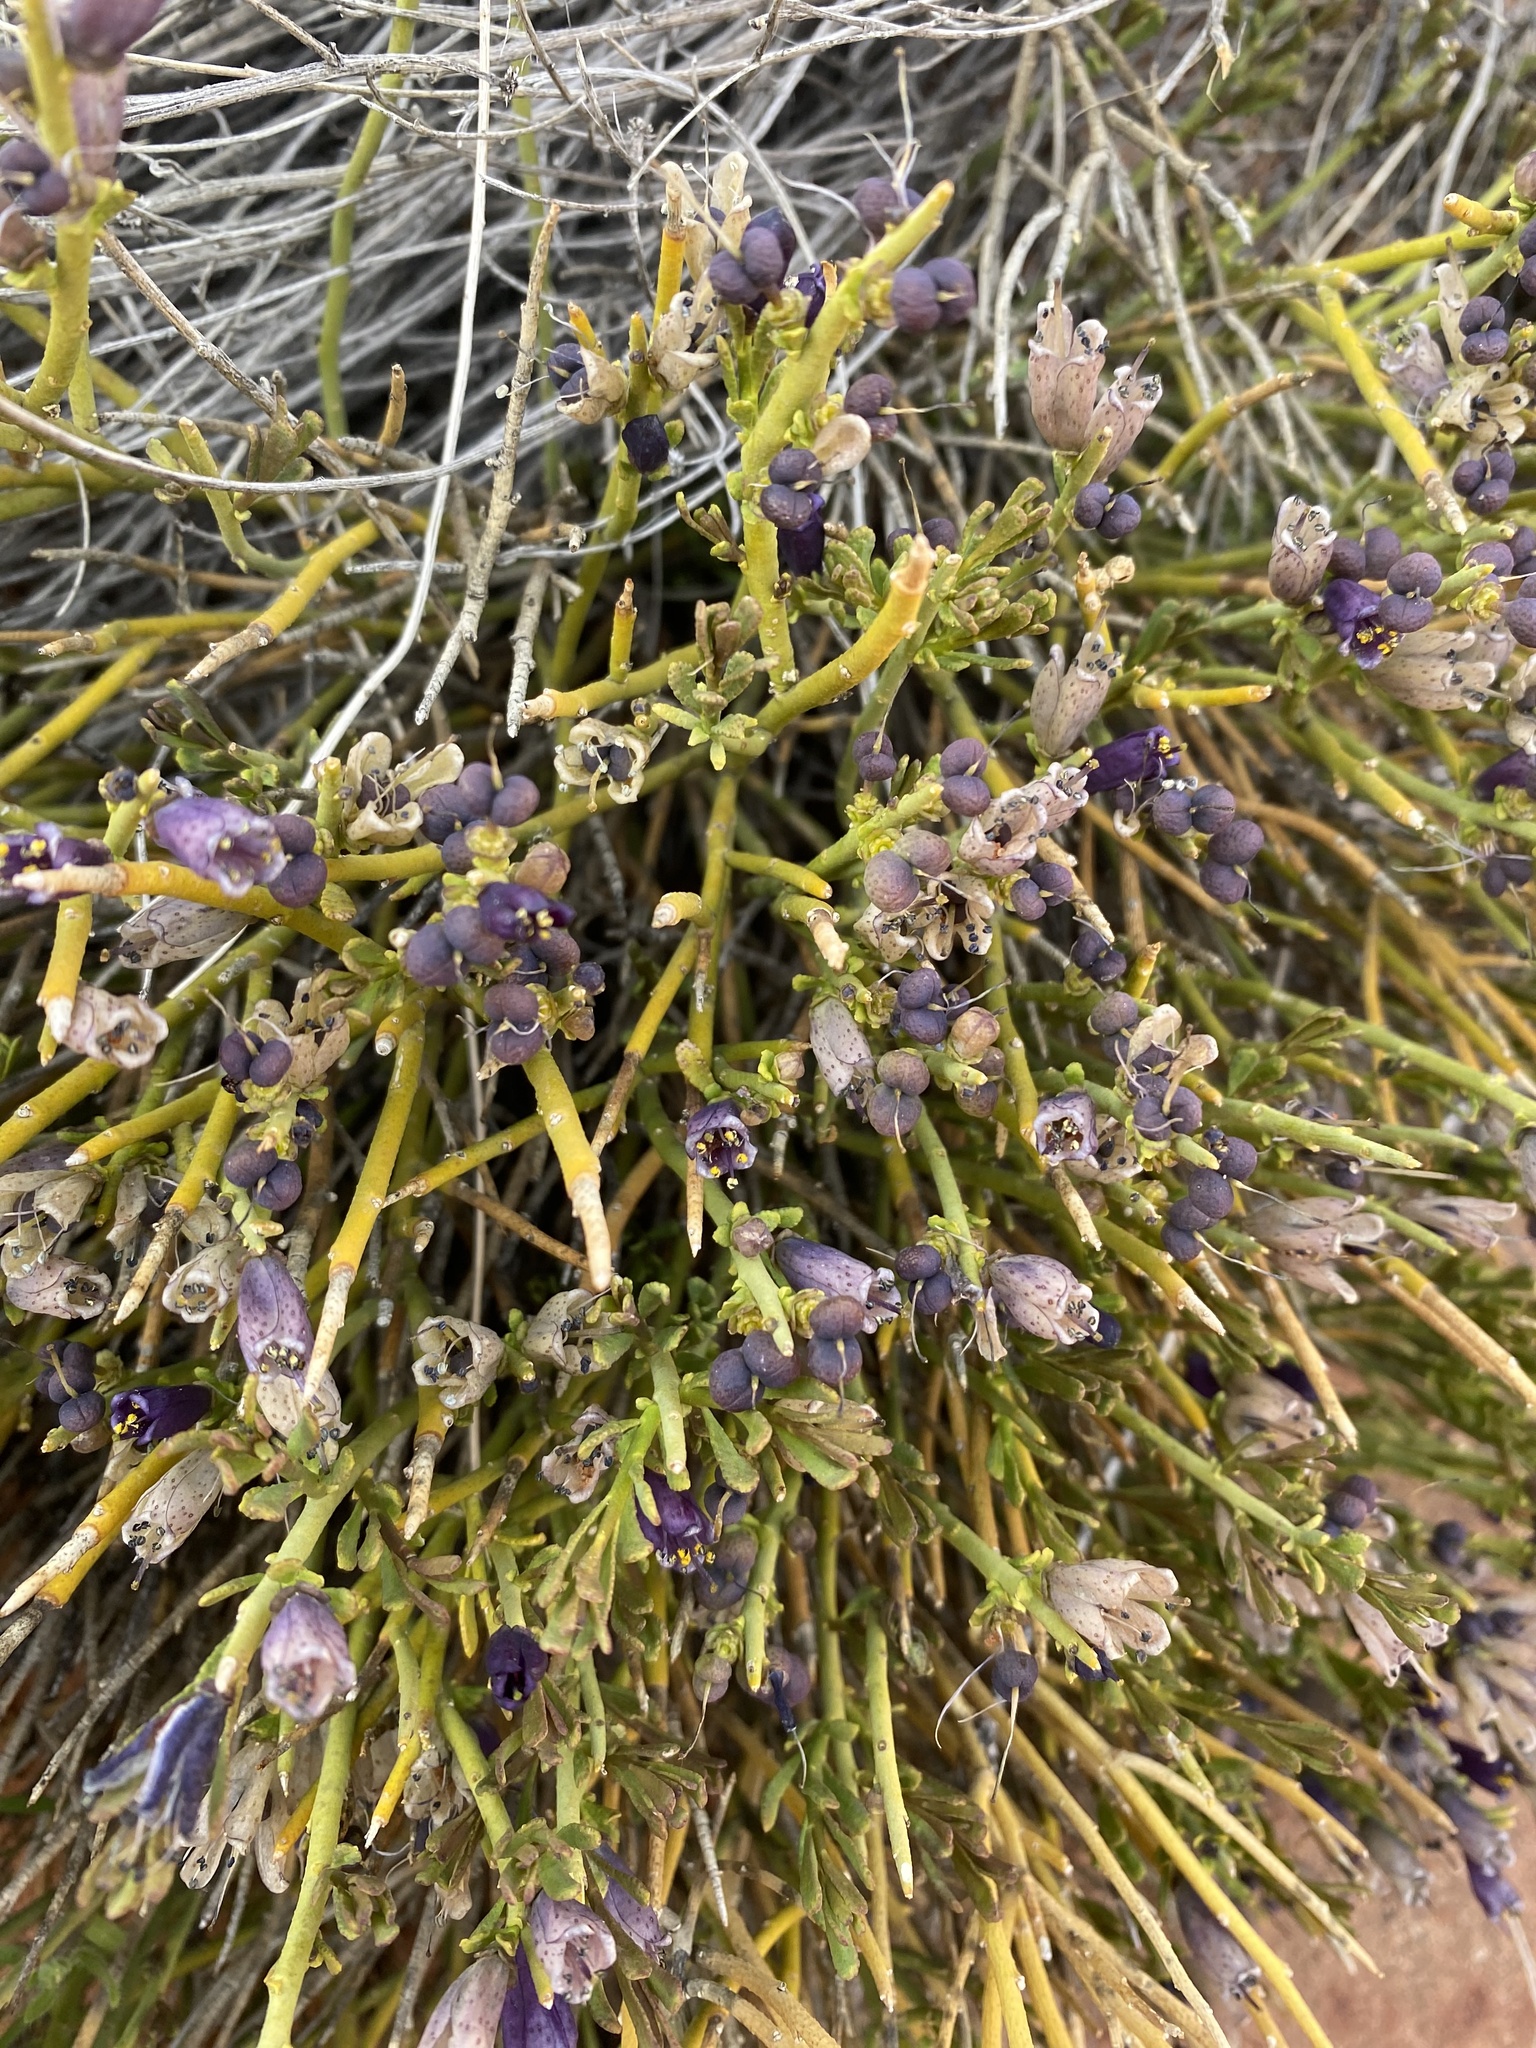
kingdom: Plantae
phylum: Tracheophyta
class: Magnoliopsida
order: Sapindales
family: Rutaceae
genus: Thamnosma
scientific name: Thamnosma montana
